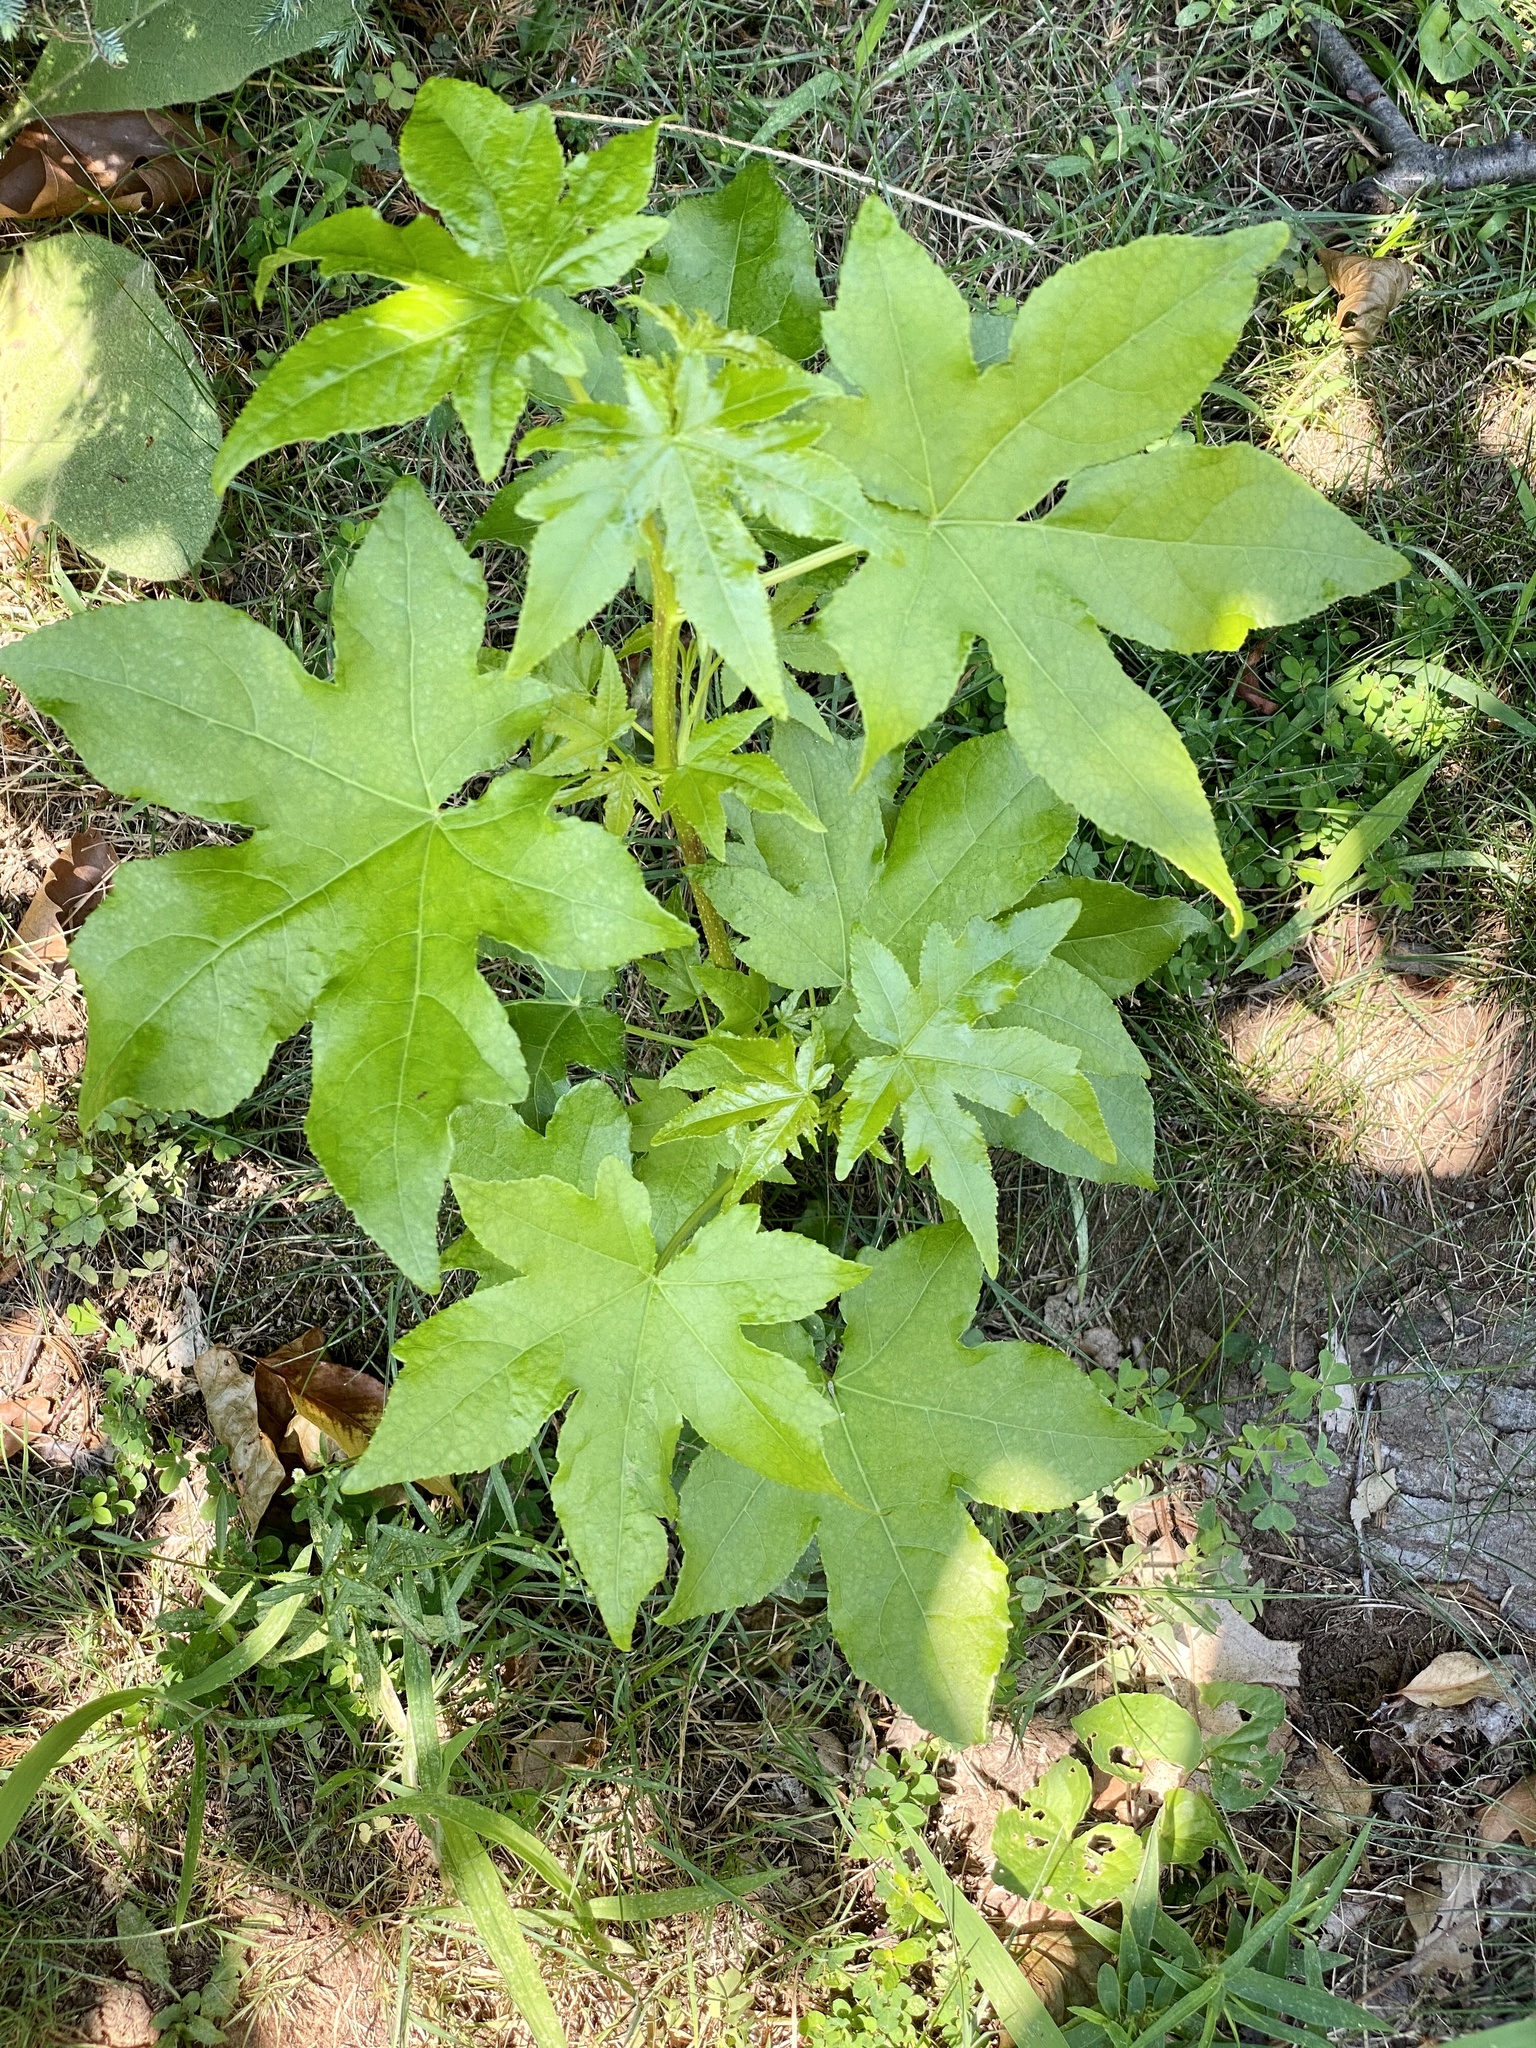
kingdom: Plantae
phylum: Tracheophyta
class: Magnoliopsida
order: Saxifragales
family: Altingiaceae
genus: Liquidambar
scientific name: Liquidambar styraciflua
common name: Sweet gum
